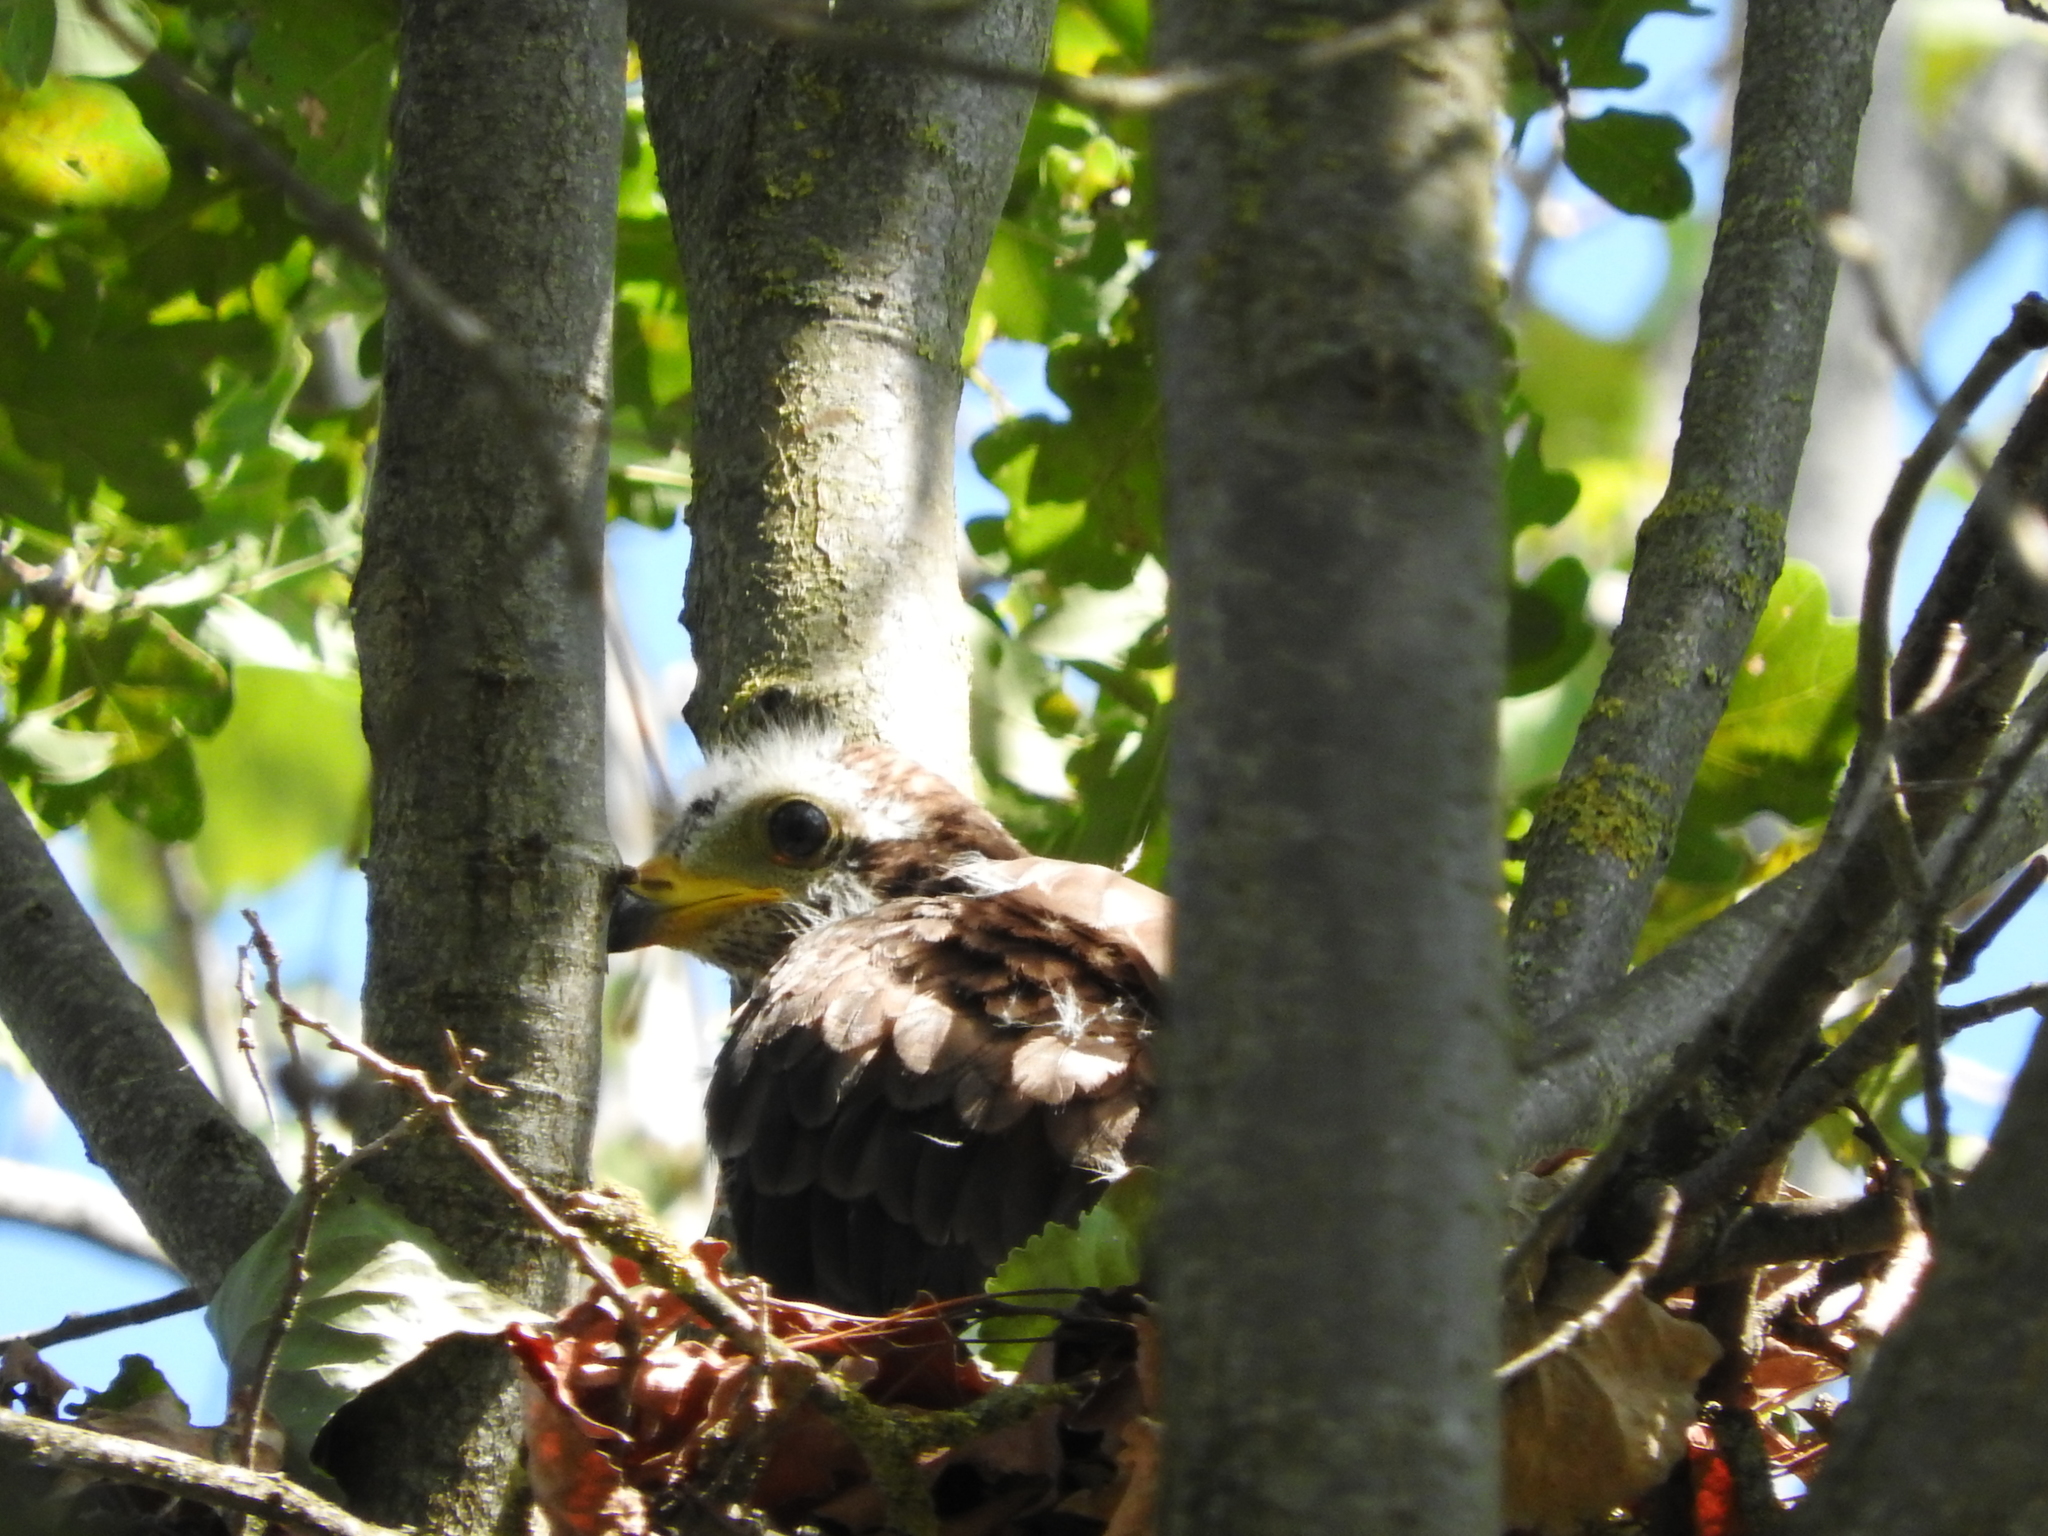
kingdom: Animalia
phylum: Chordata
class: Aves
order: Accipitriformes
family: Accipitridae
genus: Pernis
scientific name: Pernis apivorus
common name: European honey buzzard
